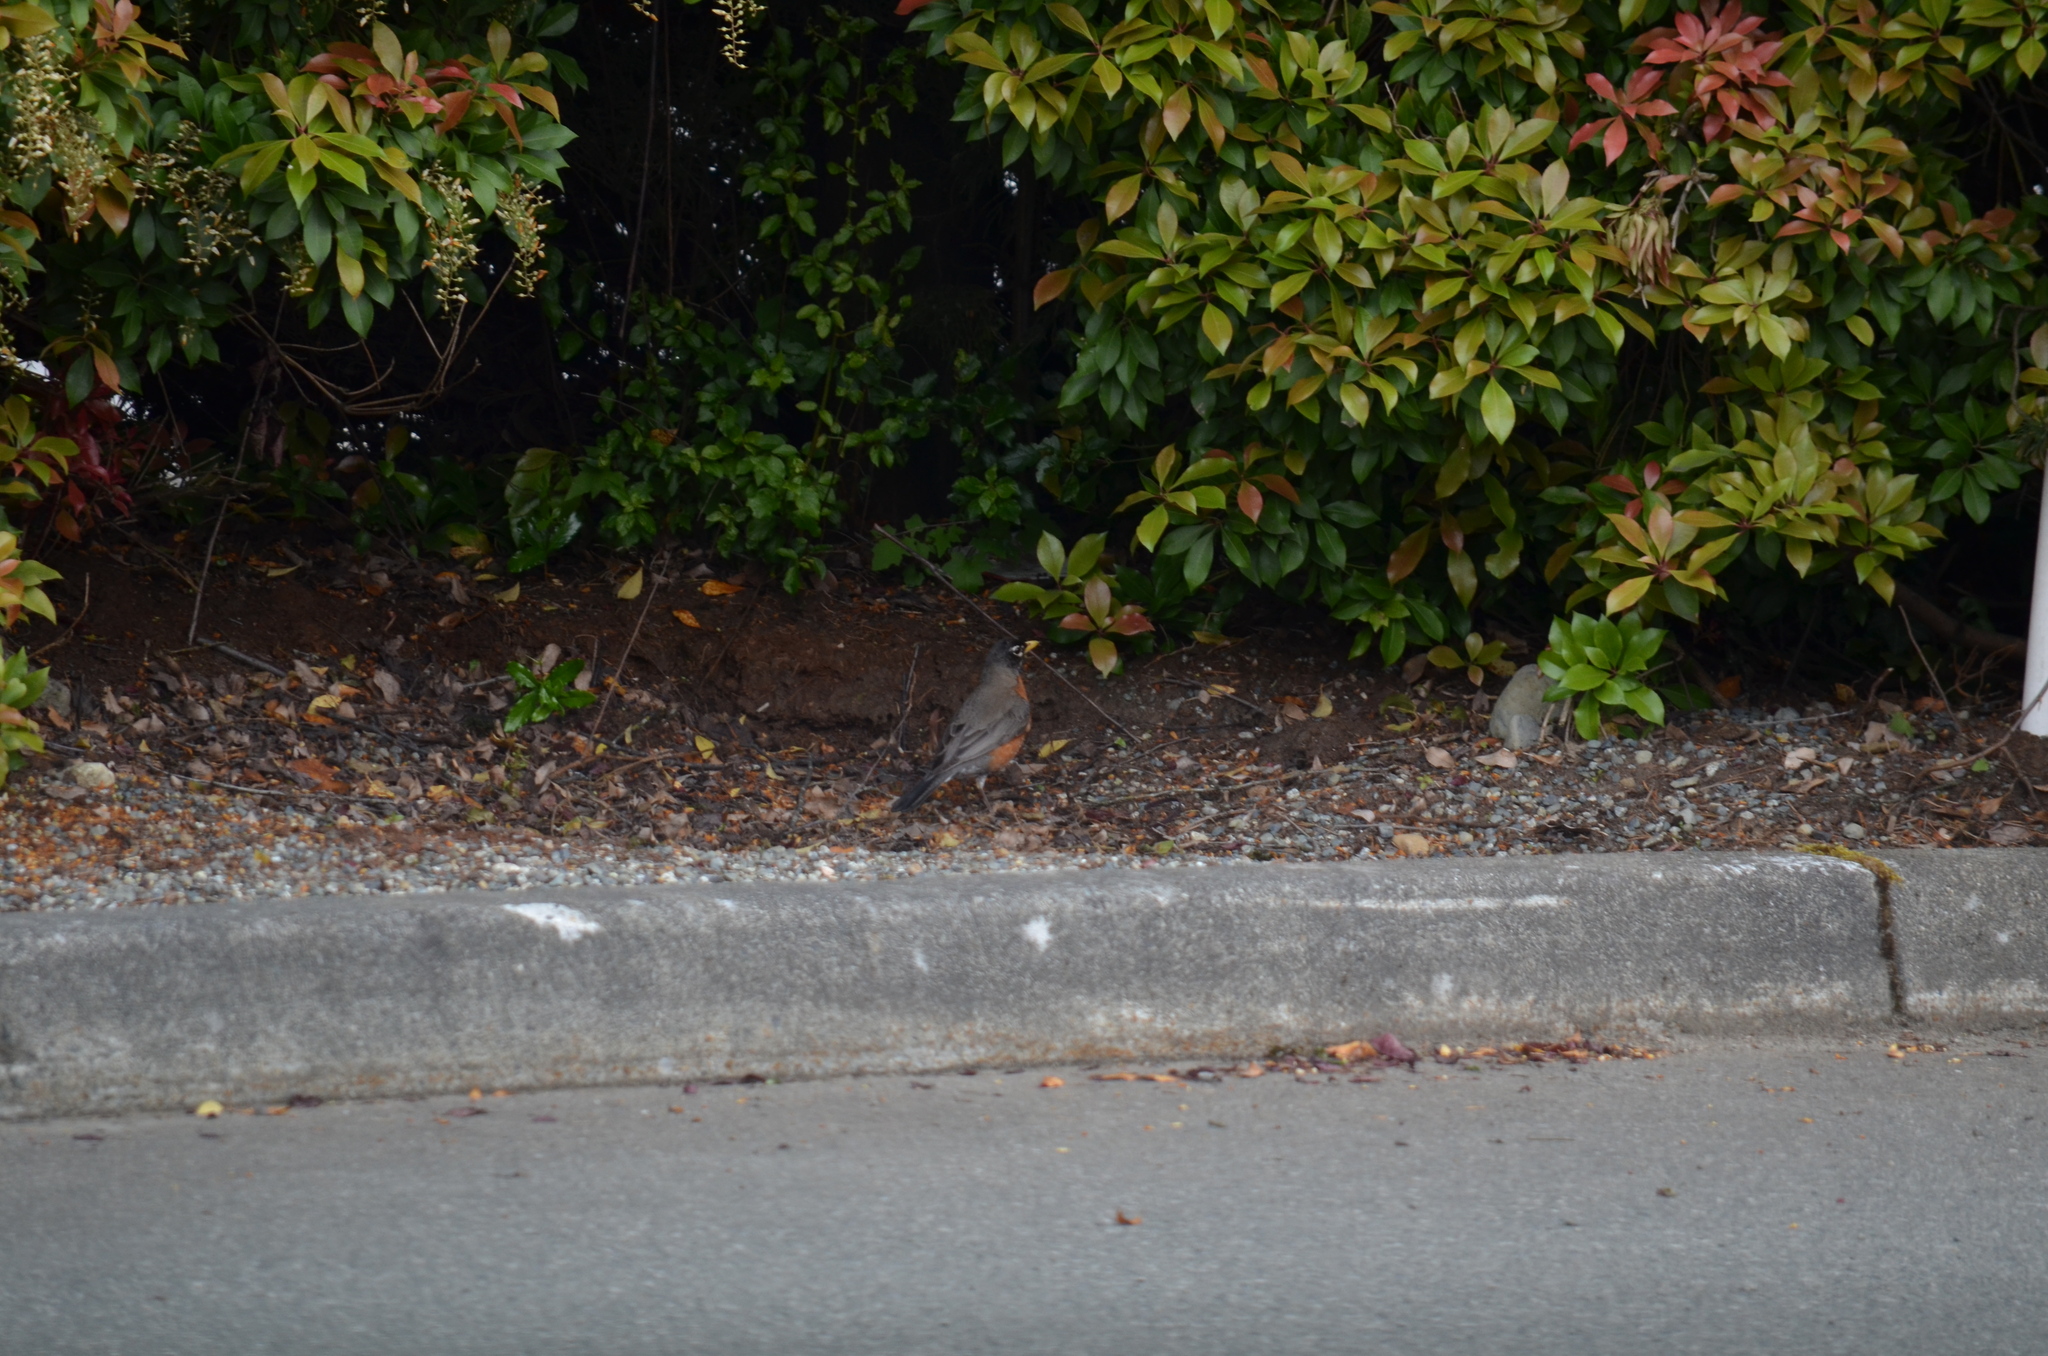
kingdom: Animalia
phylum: Chordata
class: Aves
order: Passeriformes
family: Turdidae
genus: Turdus
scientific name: Turdus migratorius
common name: American robin
